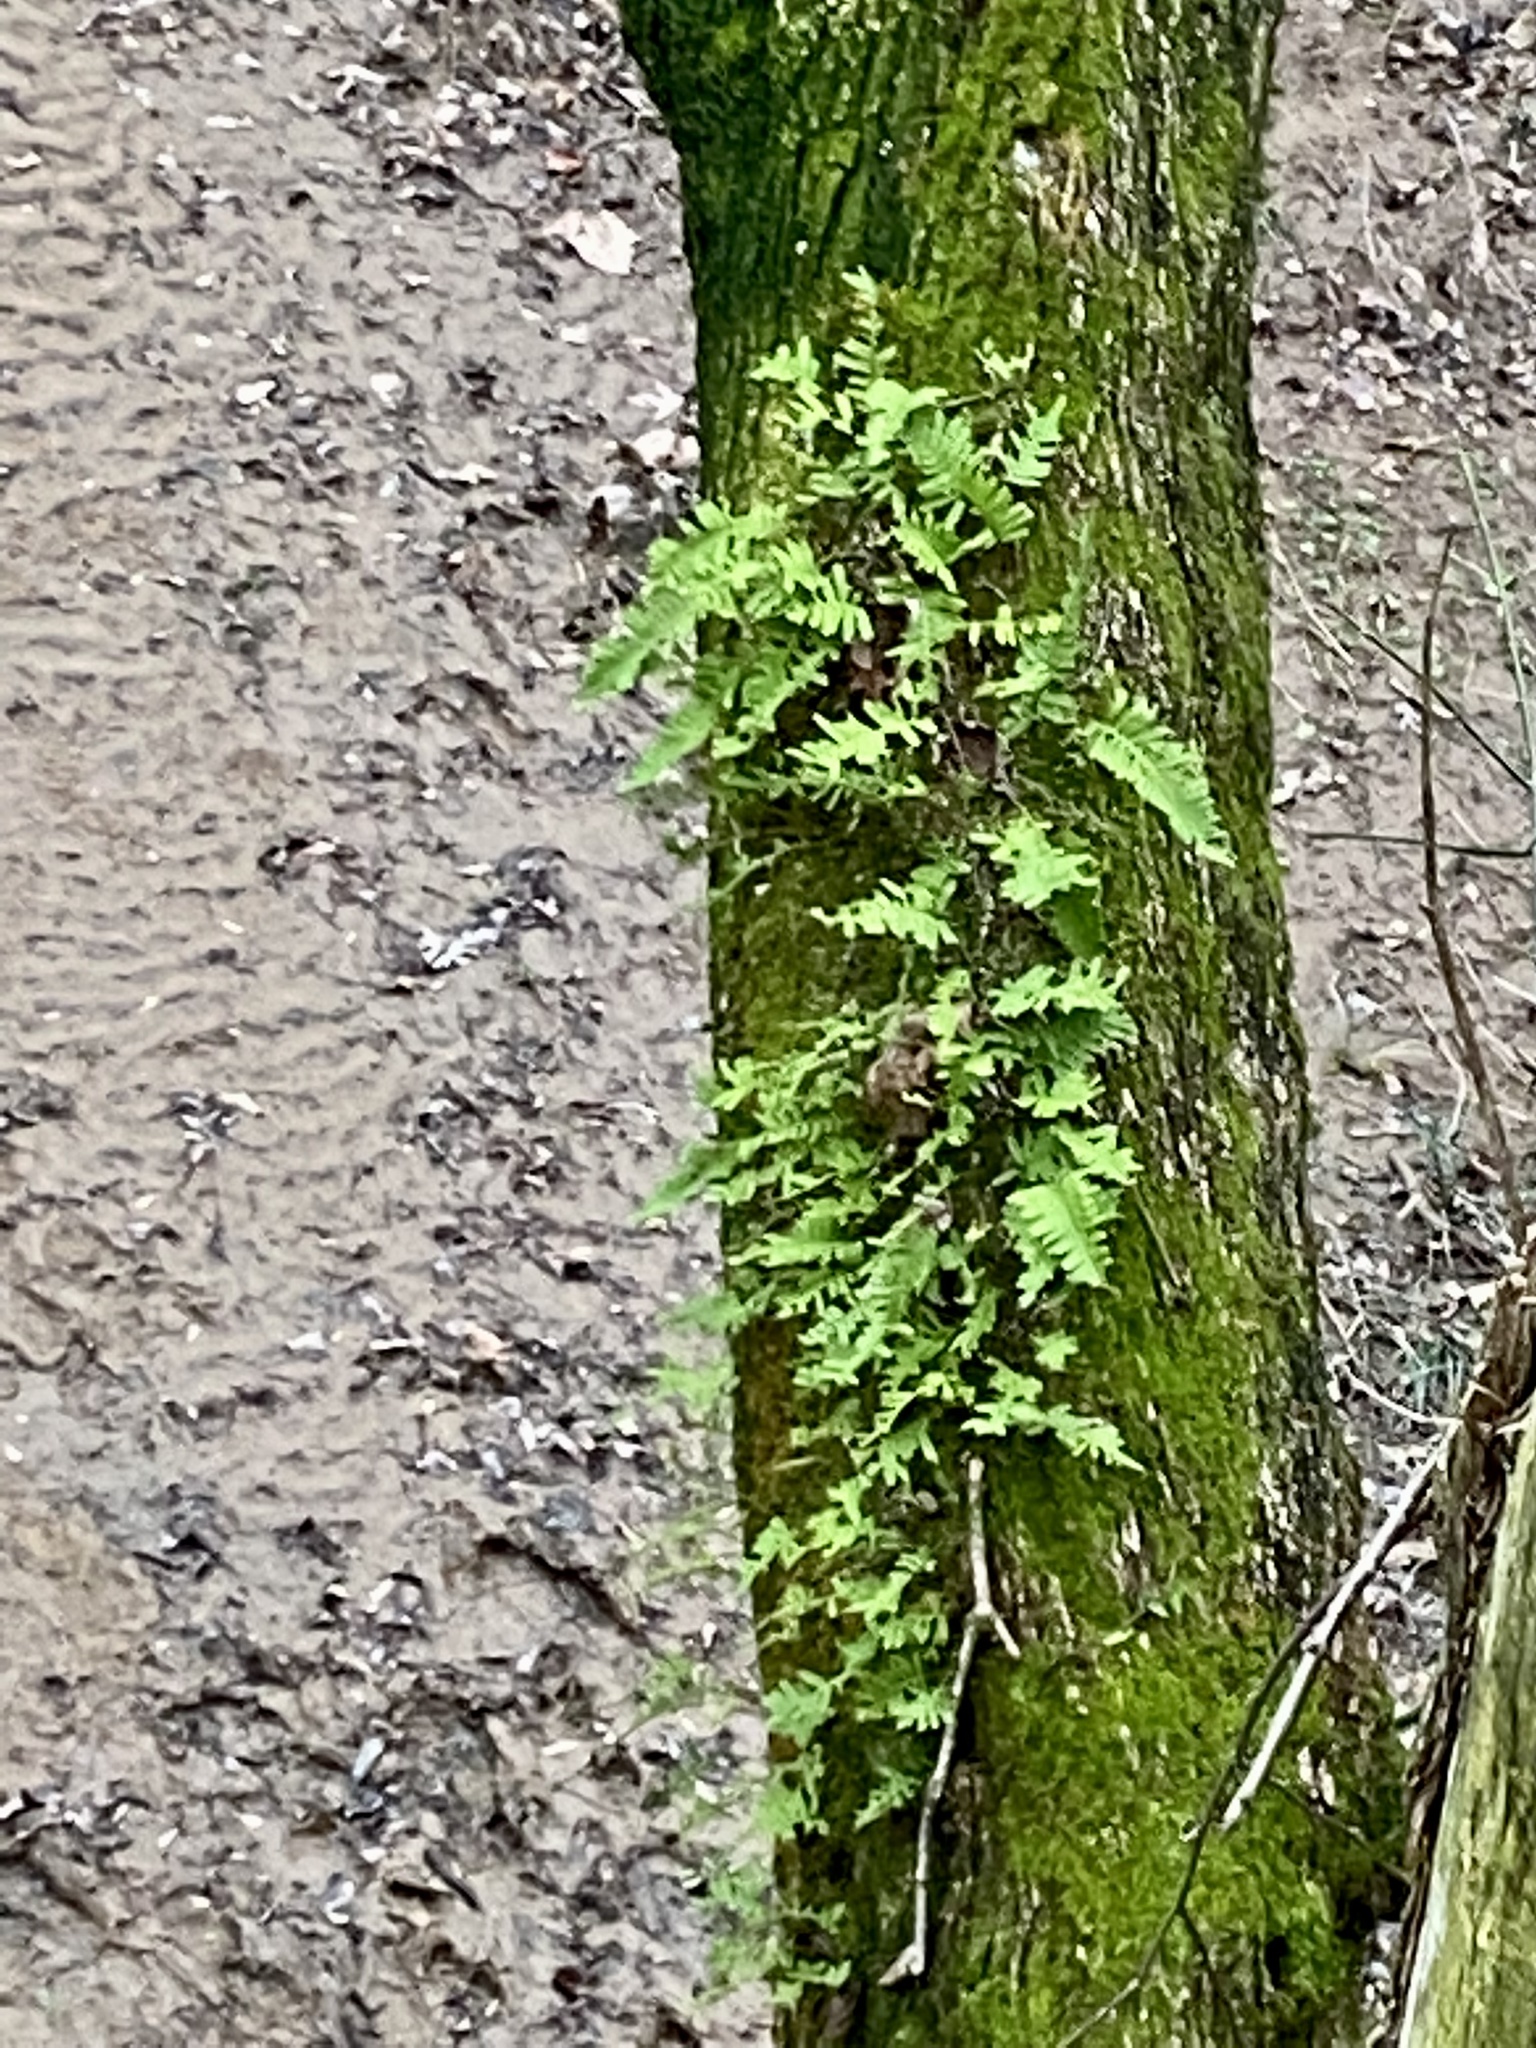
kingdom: Plantae
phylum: Tracheophyta
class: Polypodiopsida
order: Polypodiales
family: Polypodiaceae
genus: Pleopeltis
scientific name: Pleopeltis michauxiana
